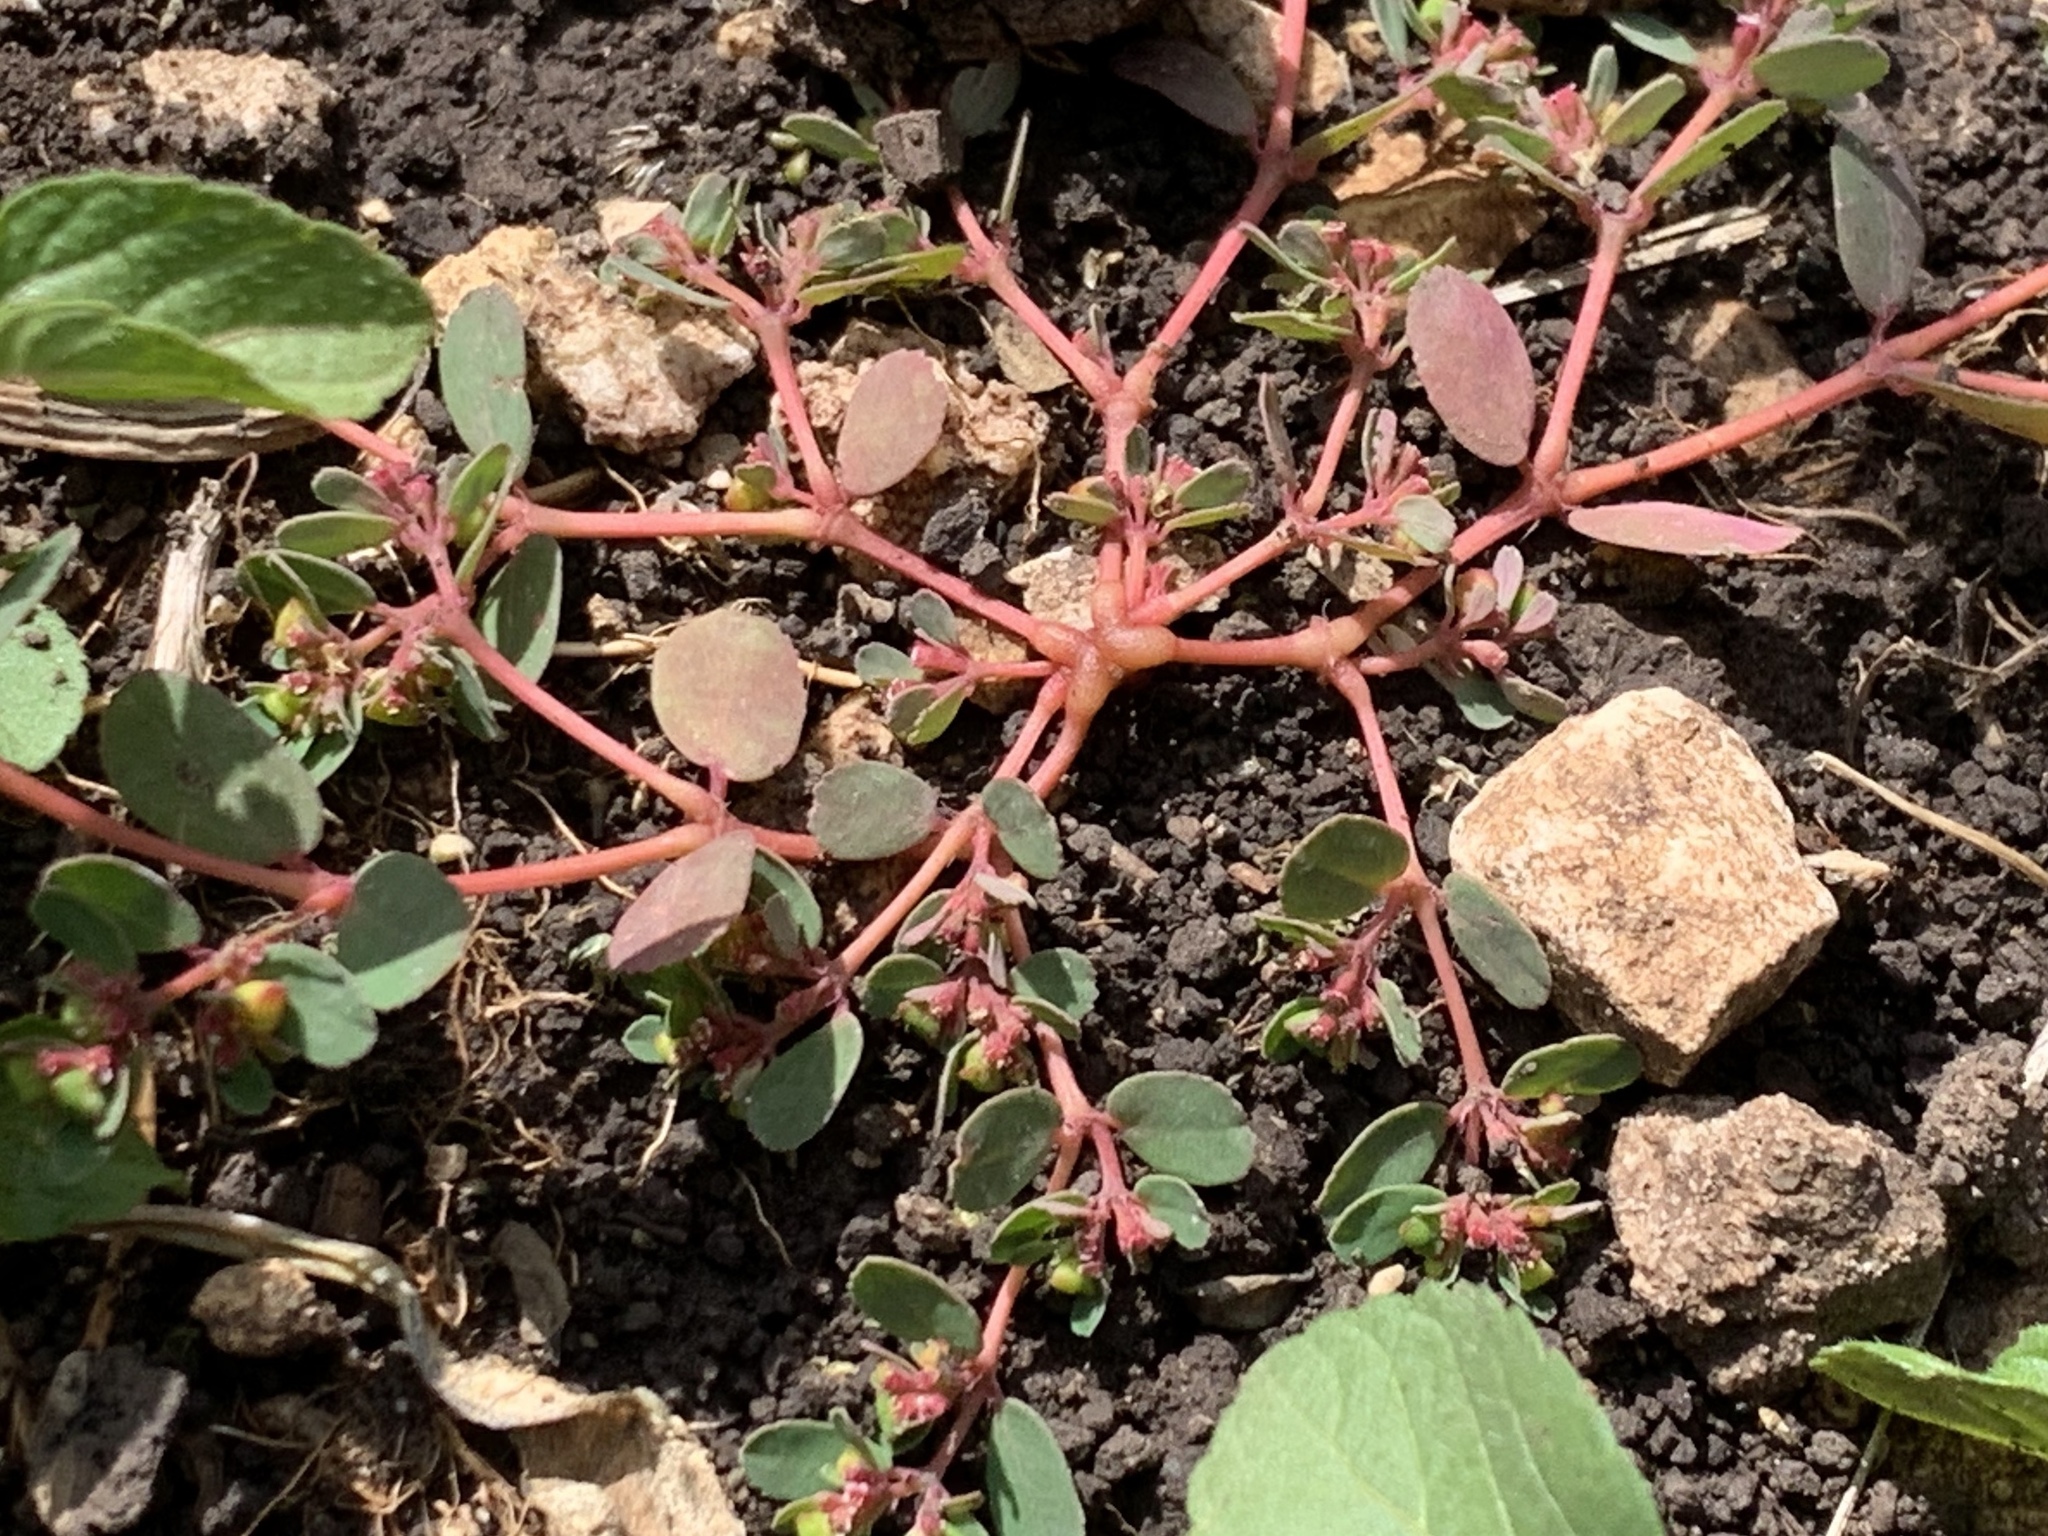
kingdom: Plantae
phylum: Tracheophyta
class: Magnoliopsida
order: Malpighiales
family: Euphorbiaceae
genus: Euphorbia
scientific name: Euphorbia serpillifolia
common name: Thyme-leaf spurge
